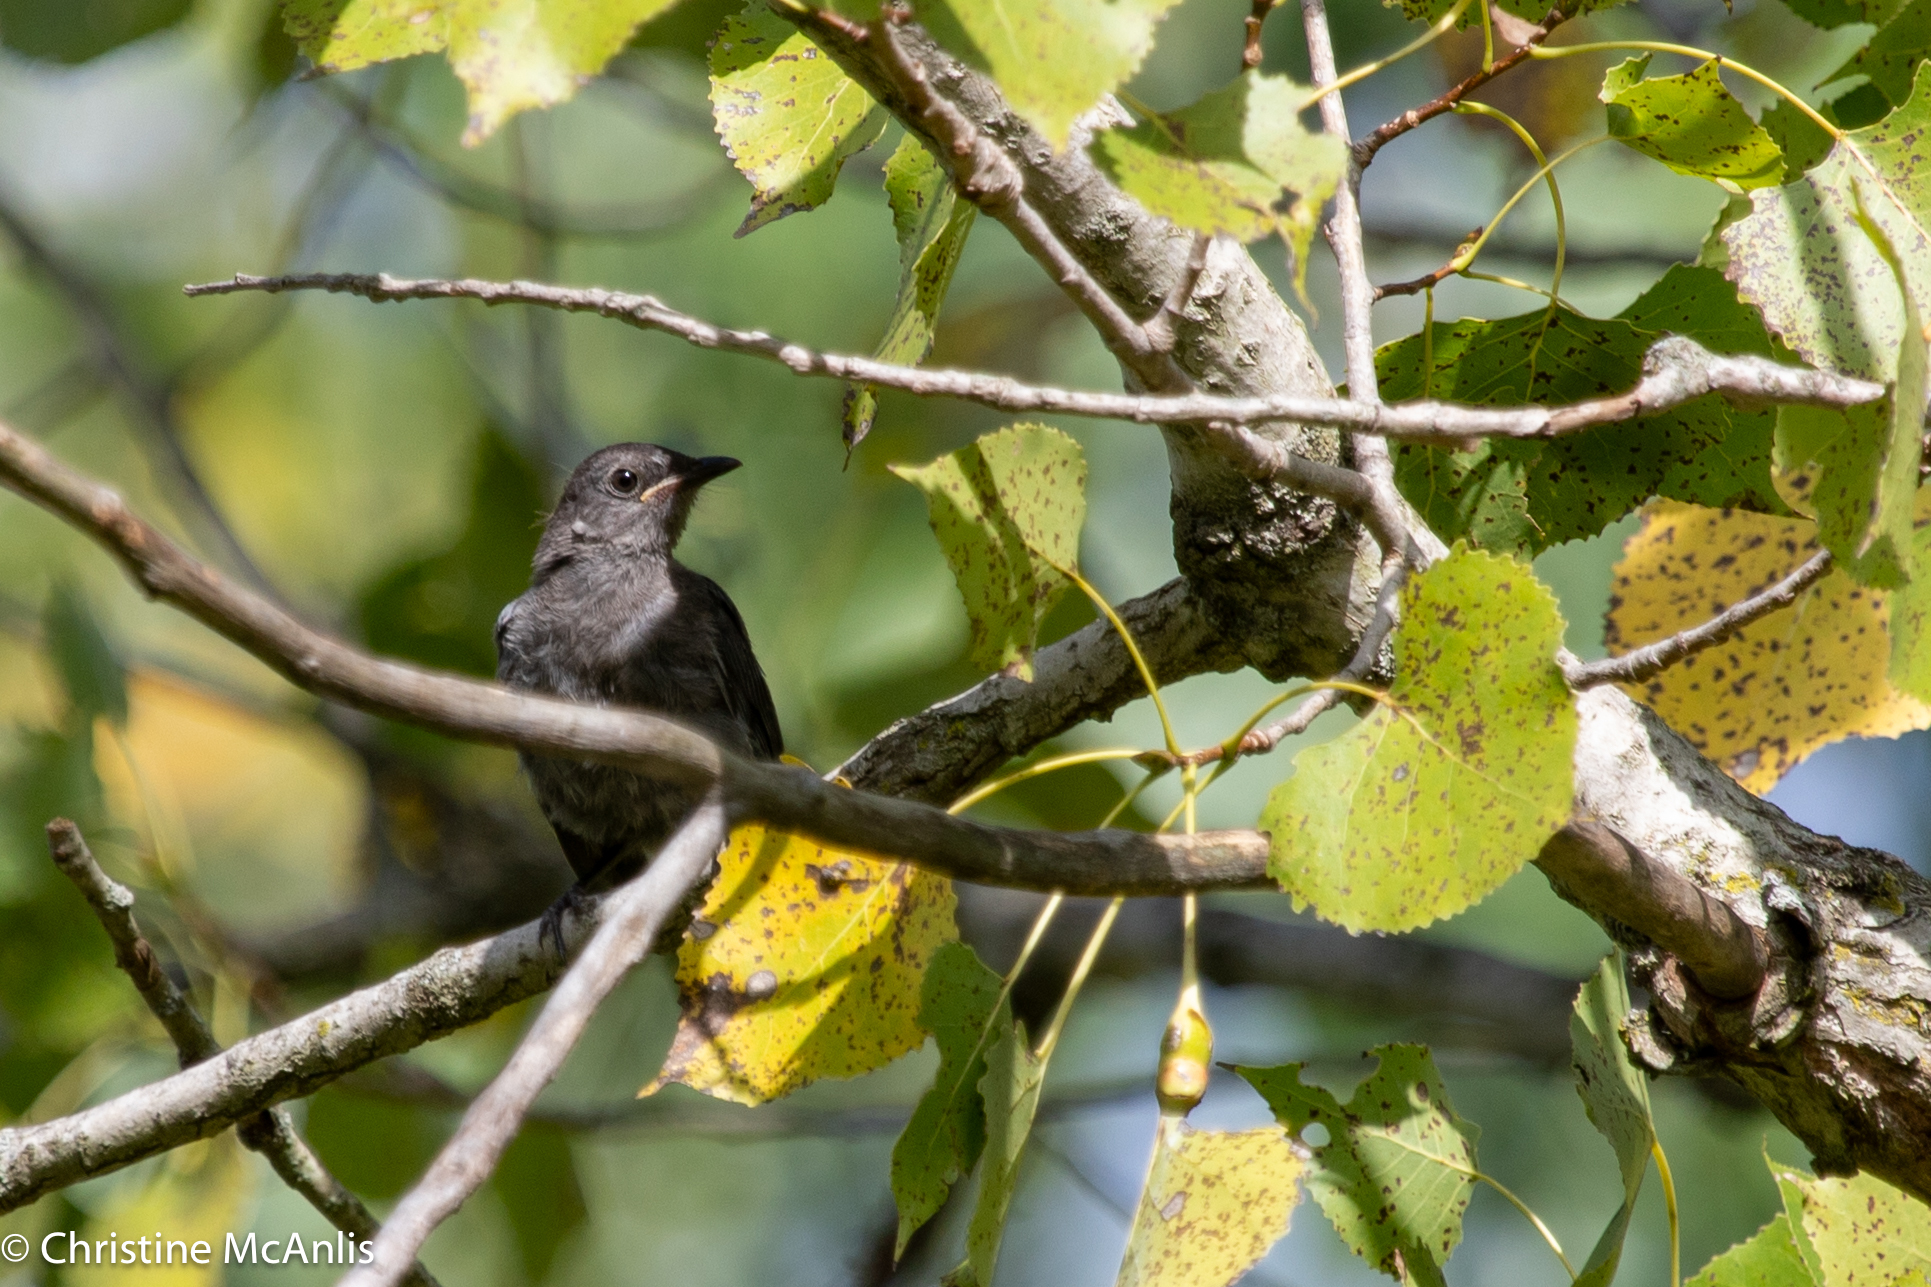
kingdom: Animalia
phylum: Chordata
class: Aves
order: Passeriformes
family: Mimidae
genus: Dumetella
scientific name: Dumetella carolinensis
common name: Gray catbird
